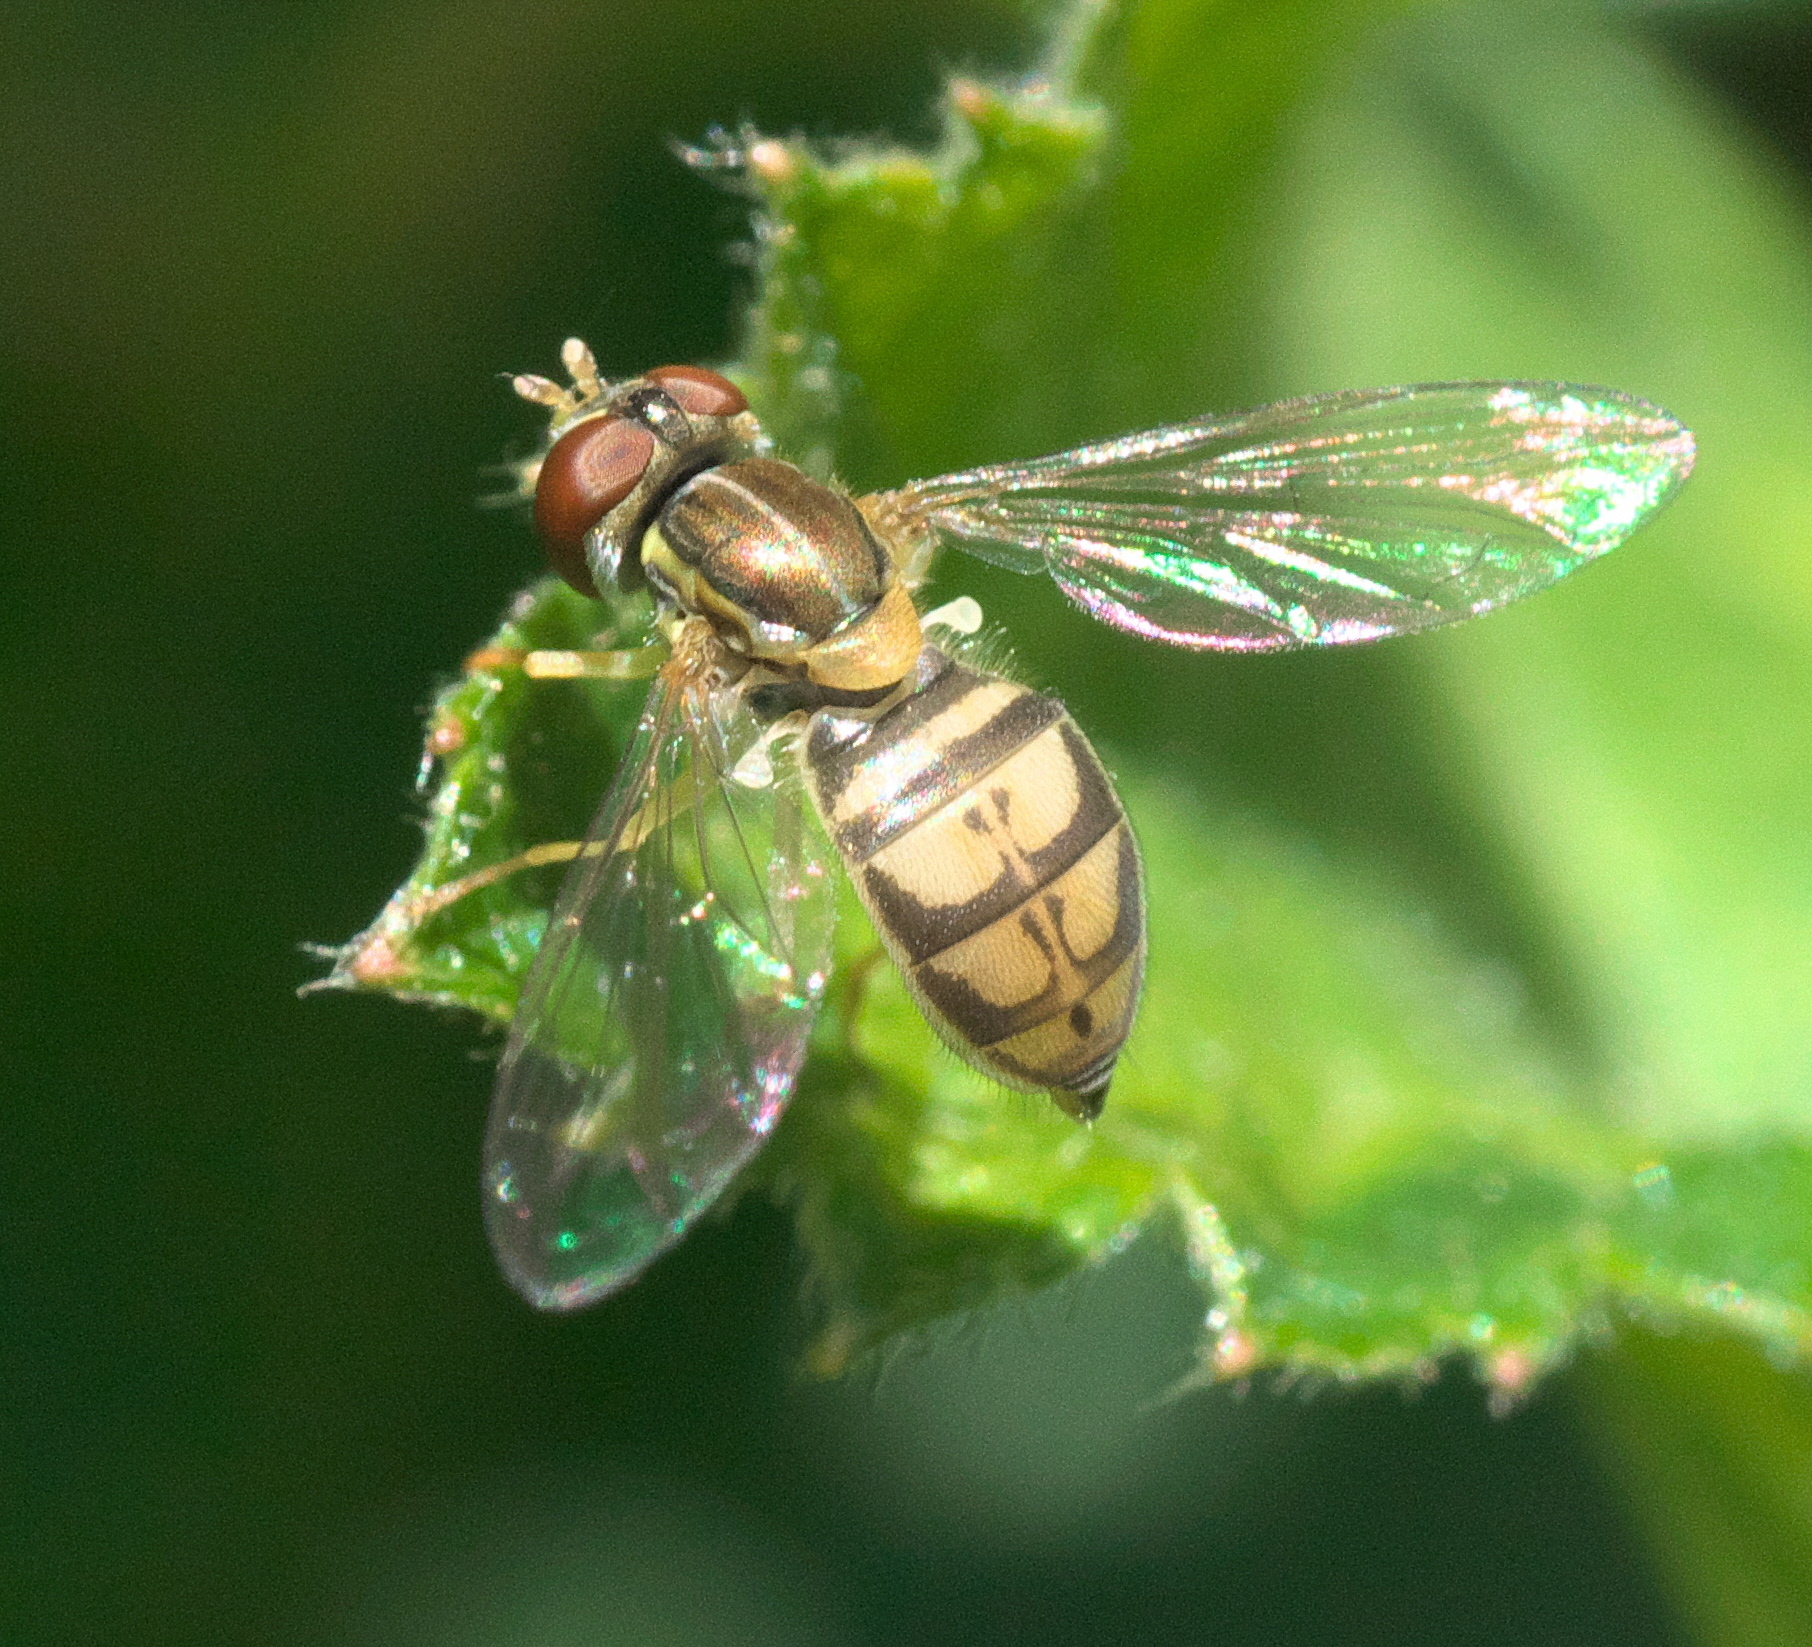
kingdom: Animalia
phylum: Arthropoda
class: Insecta
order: Diptera
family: Syrphidae
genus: Toxomerus
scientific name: Toxomerus marginatus
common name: Syrphid fly
